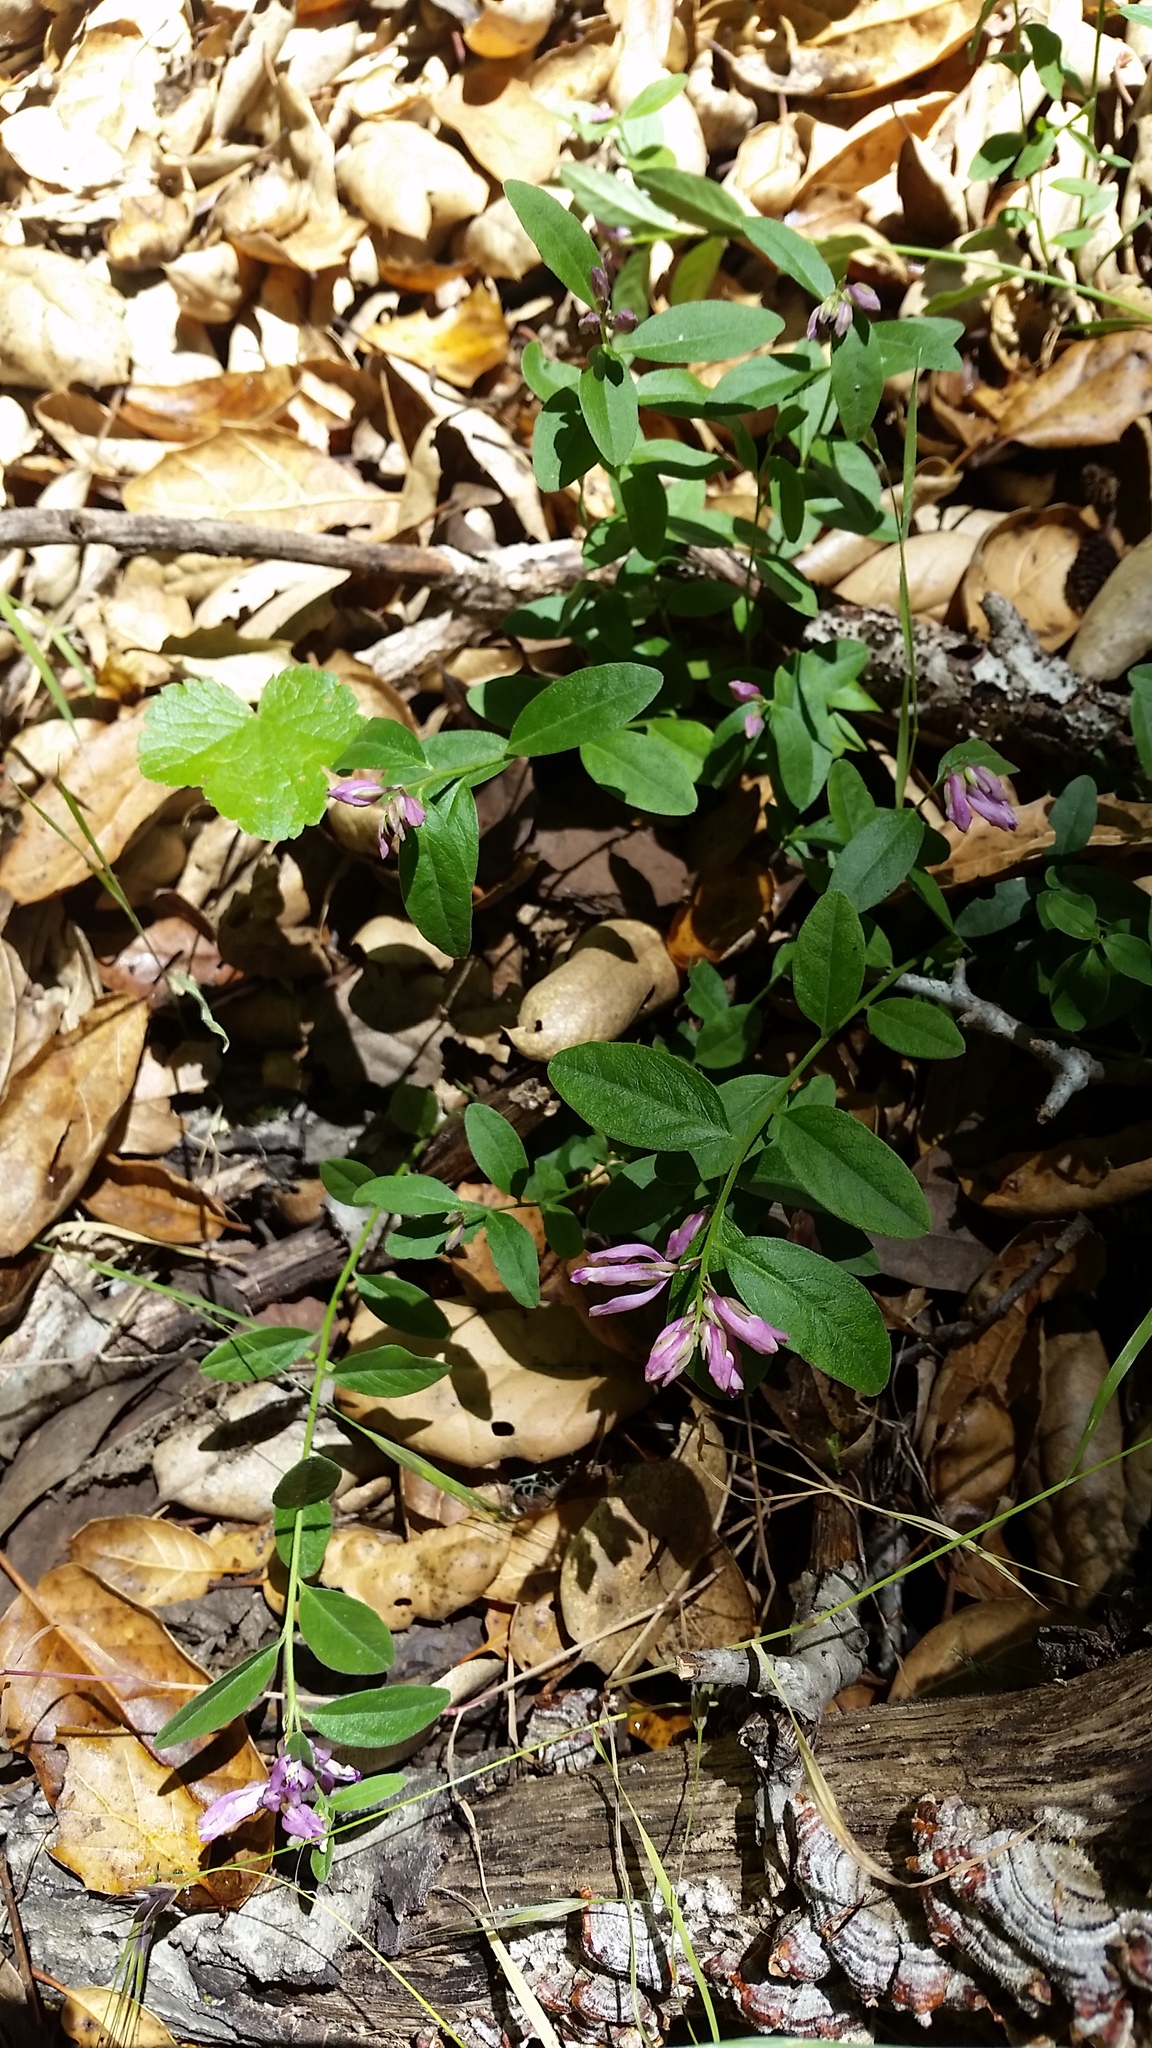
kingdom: Plantae
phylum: Tracheophyta
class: Magnoliopsida
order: Fabales
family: Polygalaceae
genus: Rhinotropis
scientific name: Rhinotropis californica
